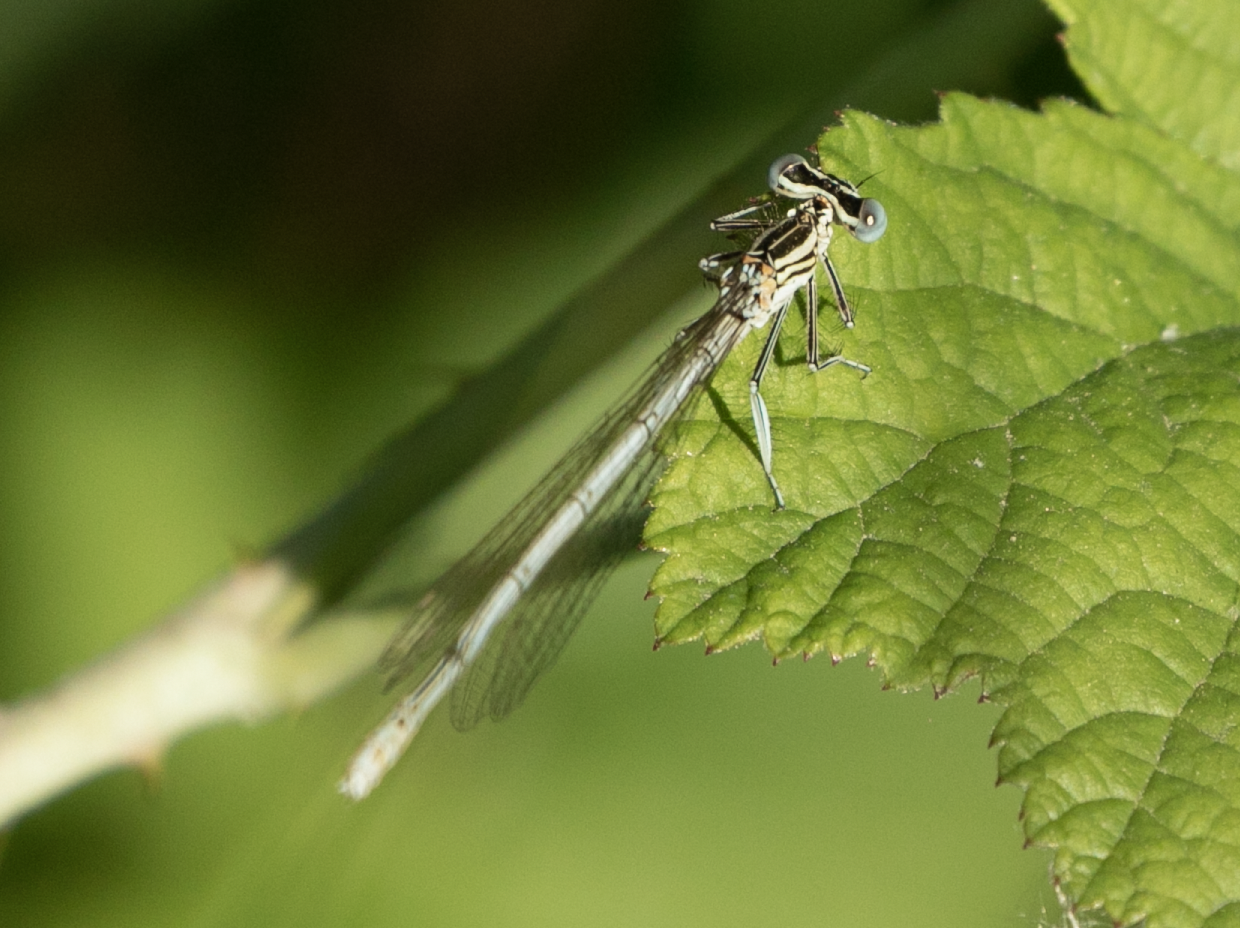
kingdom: Animalia
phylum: Arthropoda
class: Insecta
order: Odonata
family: Platycnemididae
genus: Platycnemis
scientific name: Platycnemis pennipes
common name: White-legged damselfly
